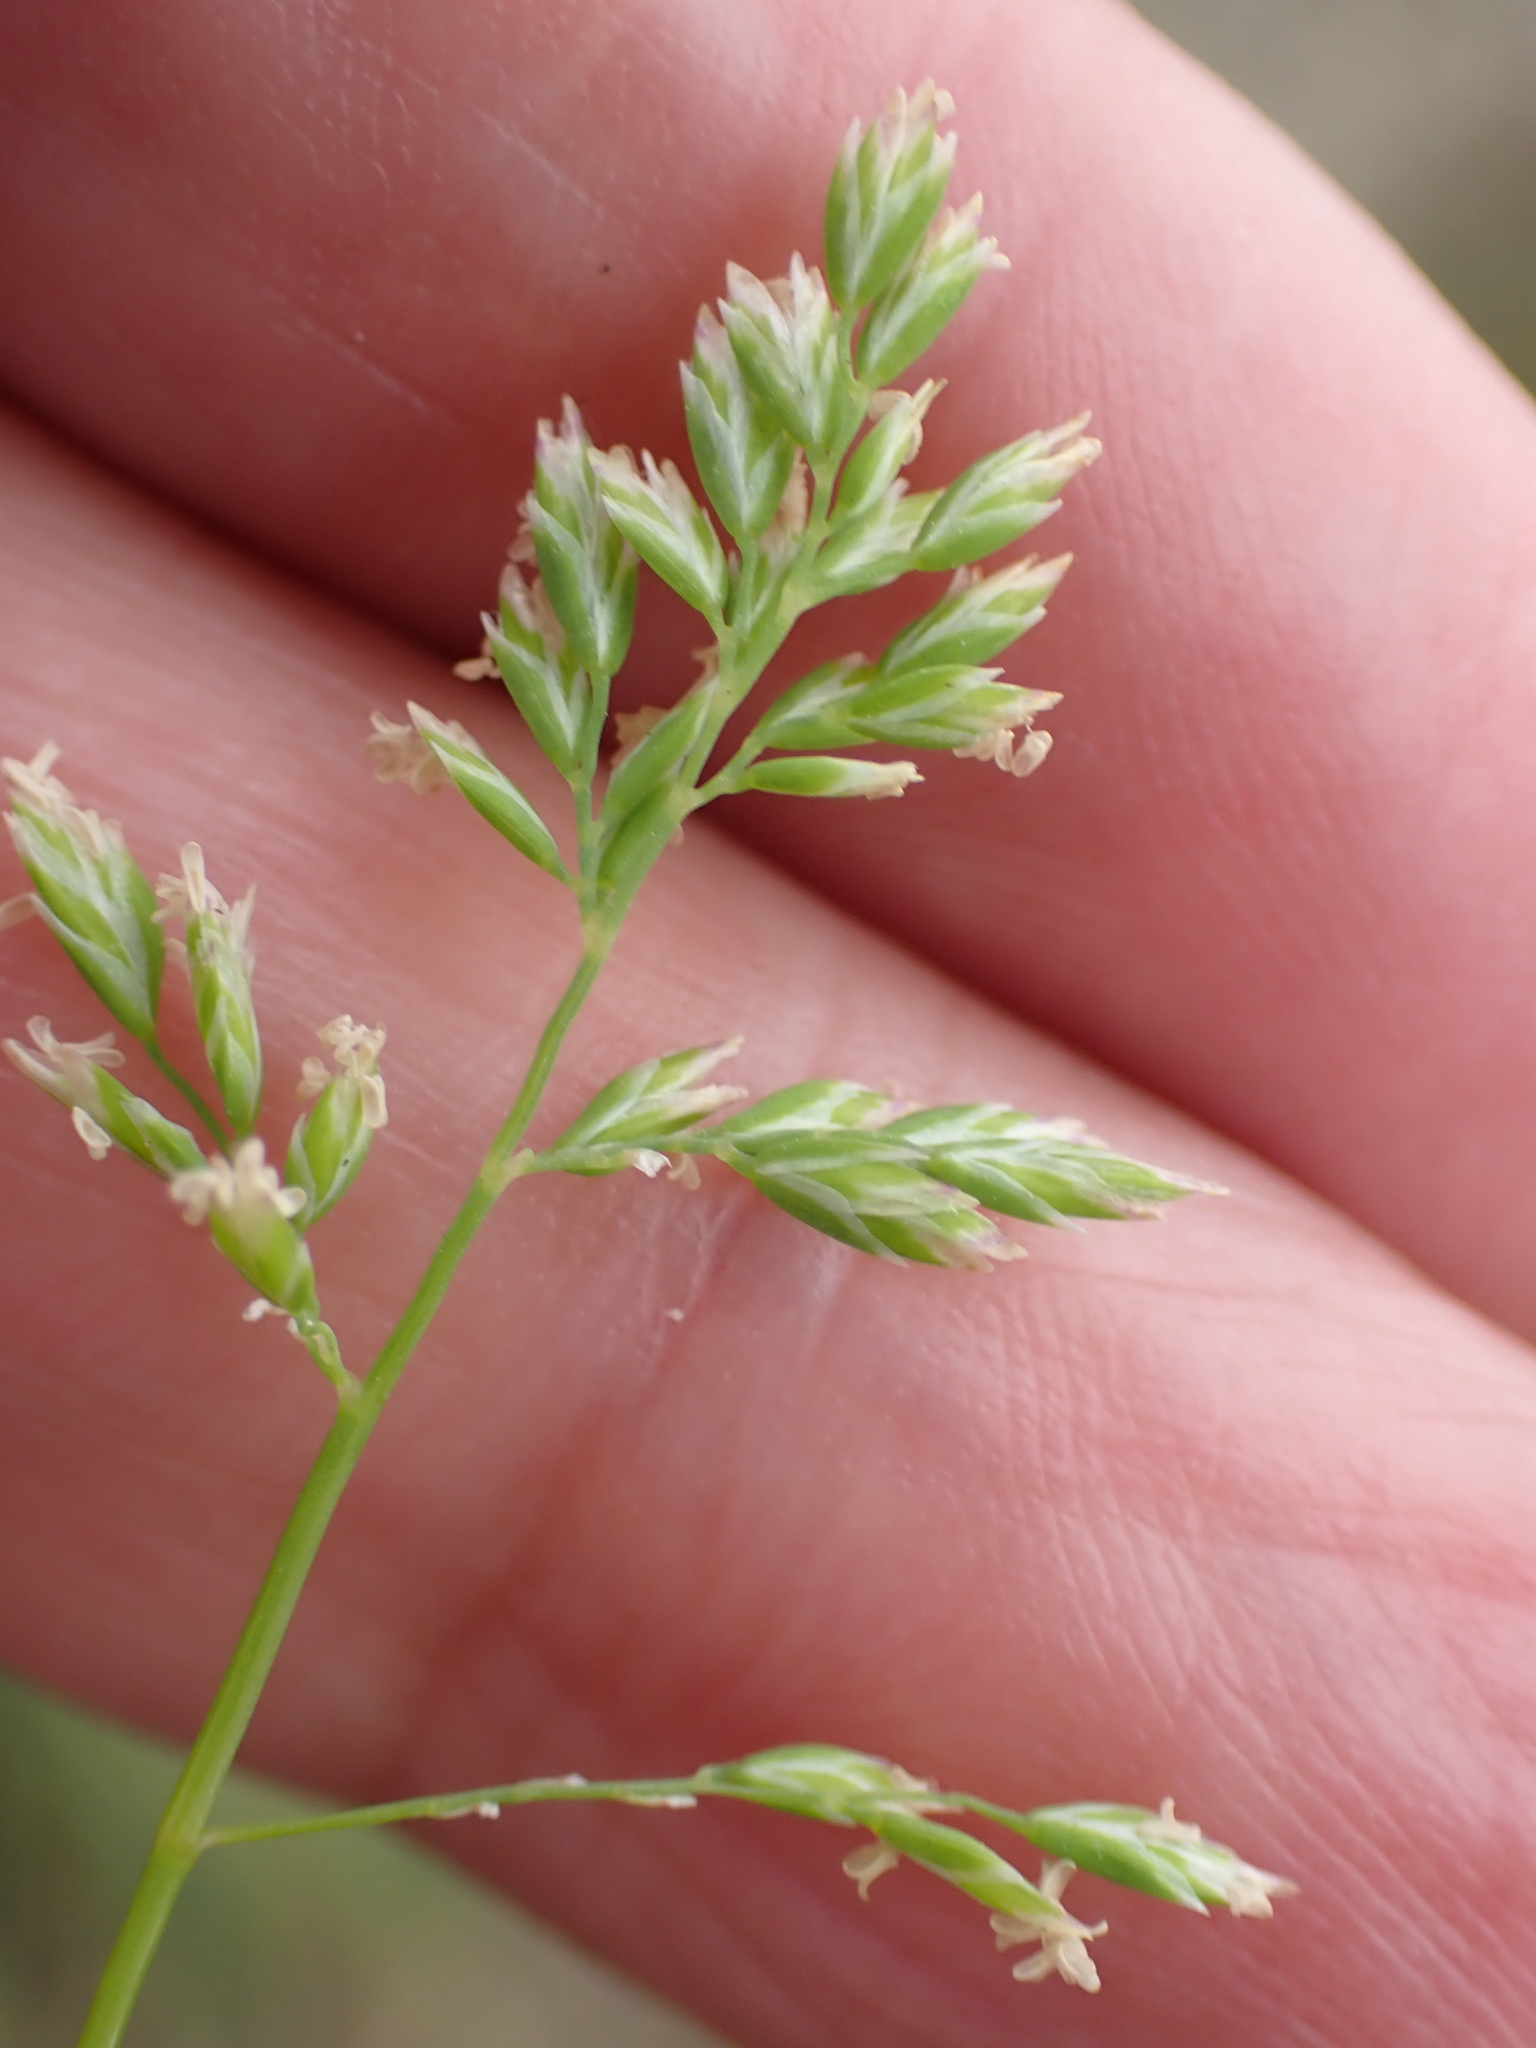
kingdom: Plantae
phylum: Tracheophyta
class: Liliopsida
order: Poales
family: Poaceae
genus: Poa
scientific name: Poa annua
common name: Annual bluegrass
